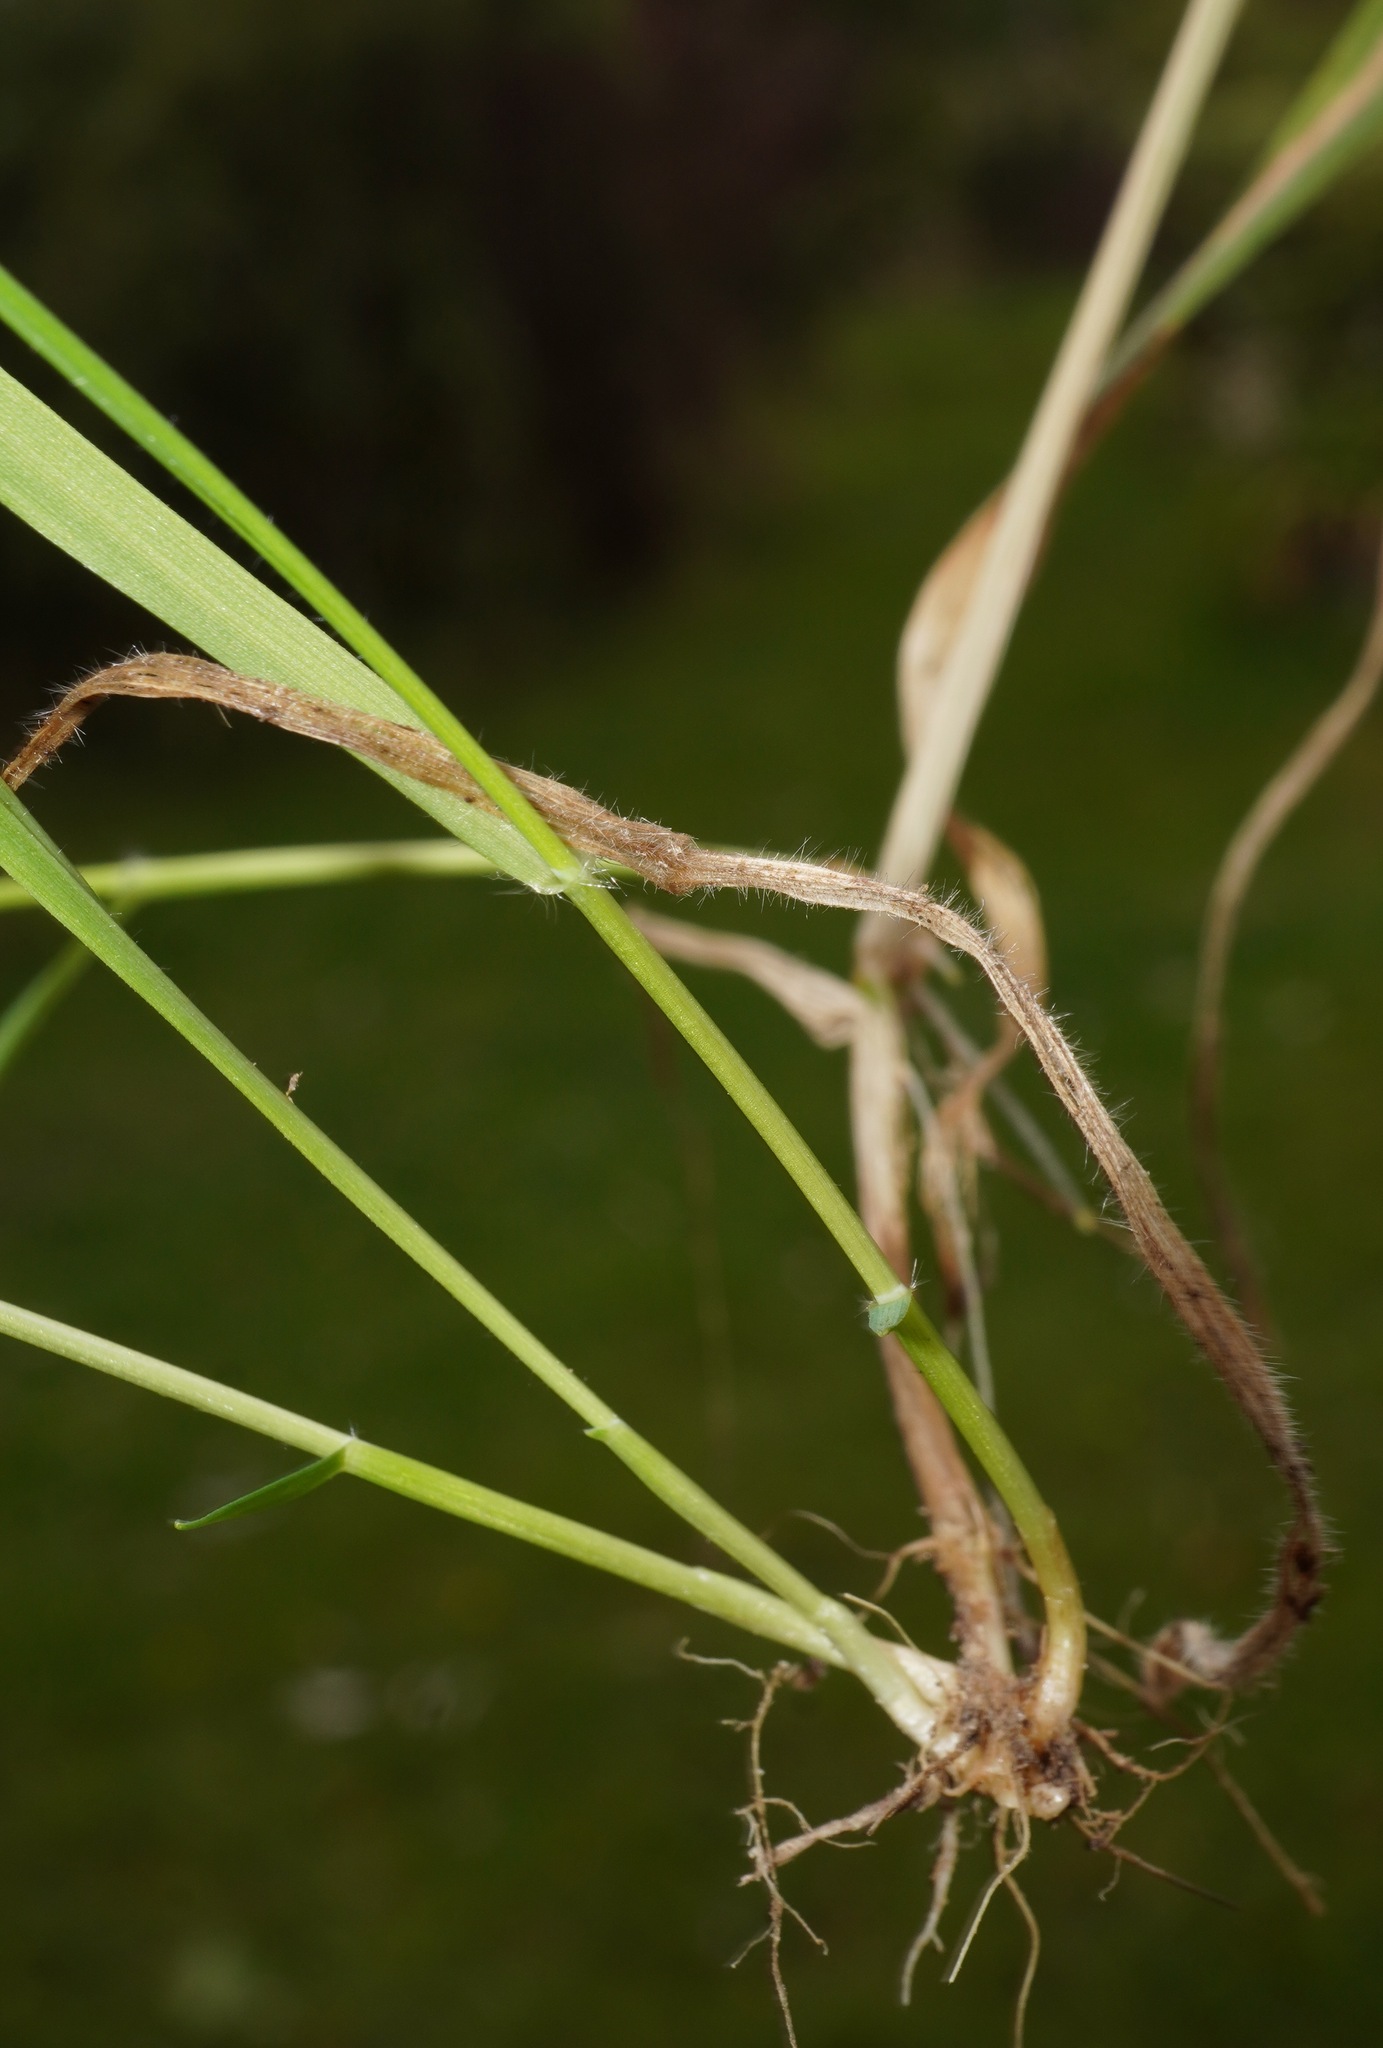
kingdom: Plantae
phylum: Tracheophyta
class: Liliopsida
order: Poales
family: Poaceae
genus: Anthoxanthum
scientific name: Anthoxanthum odoratum
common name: Sweet vernalgrass
